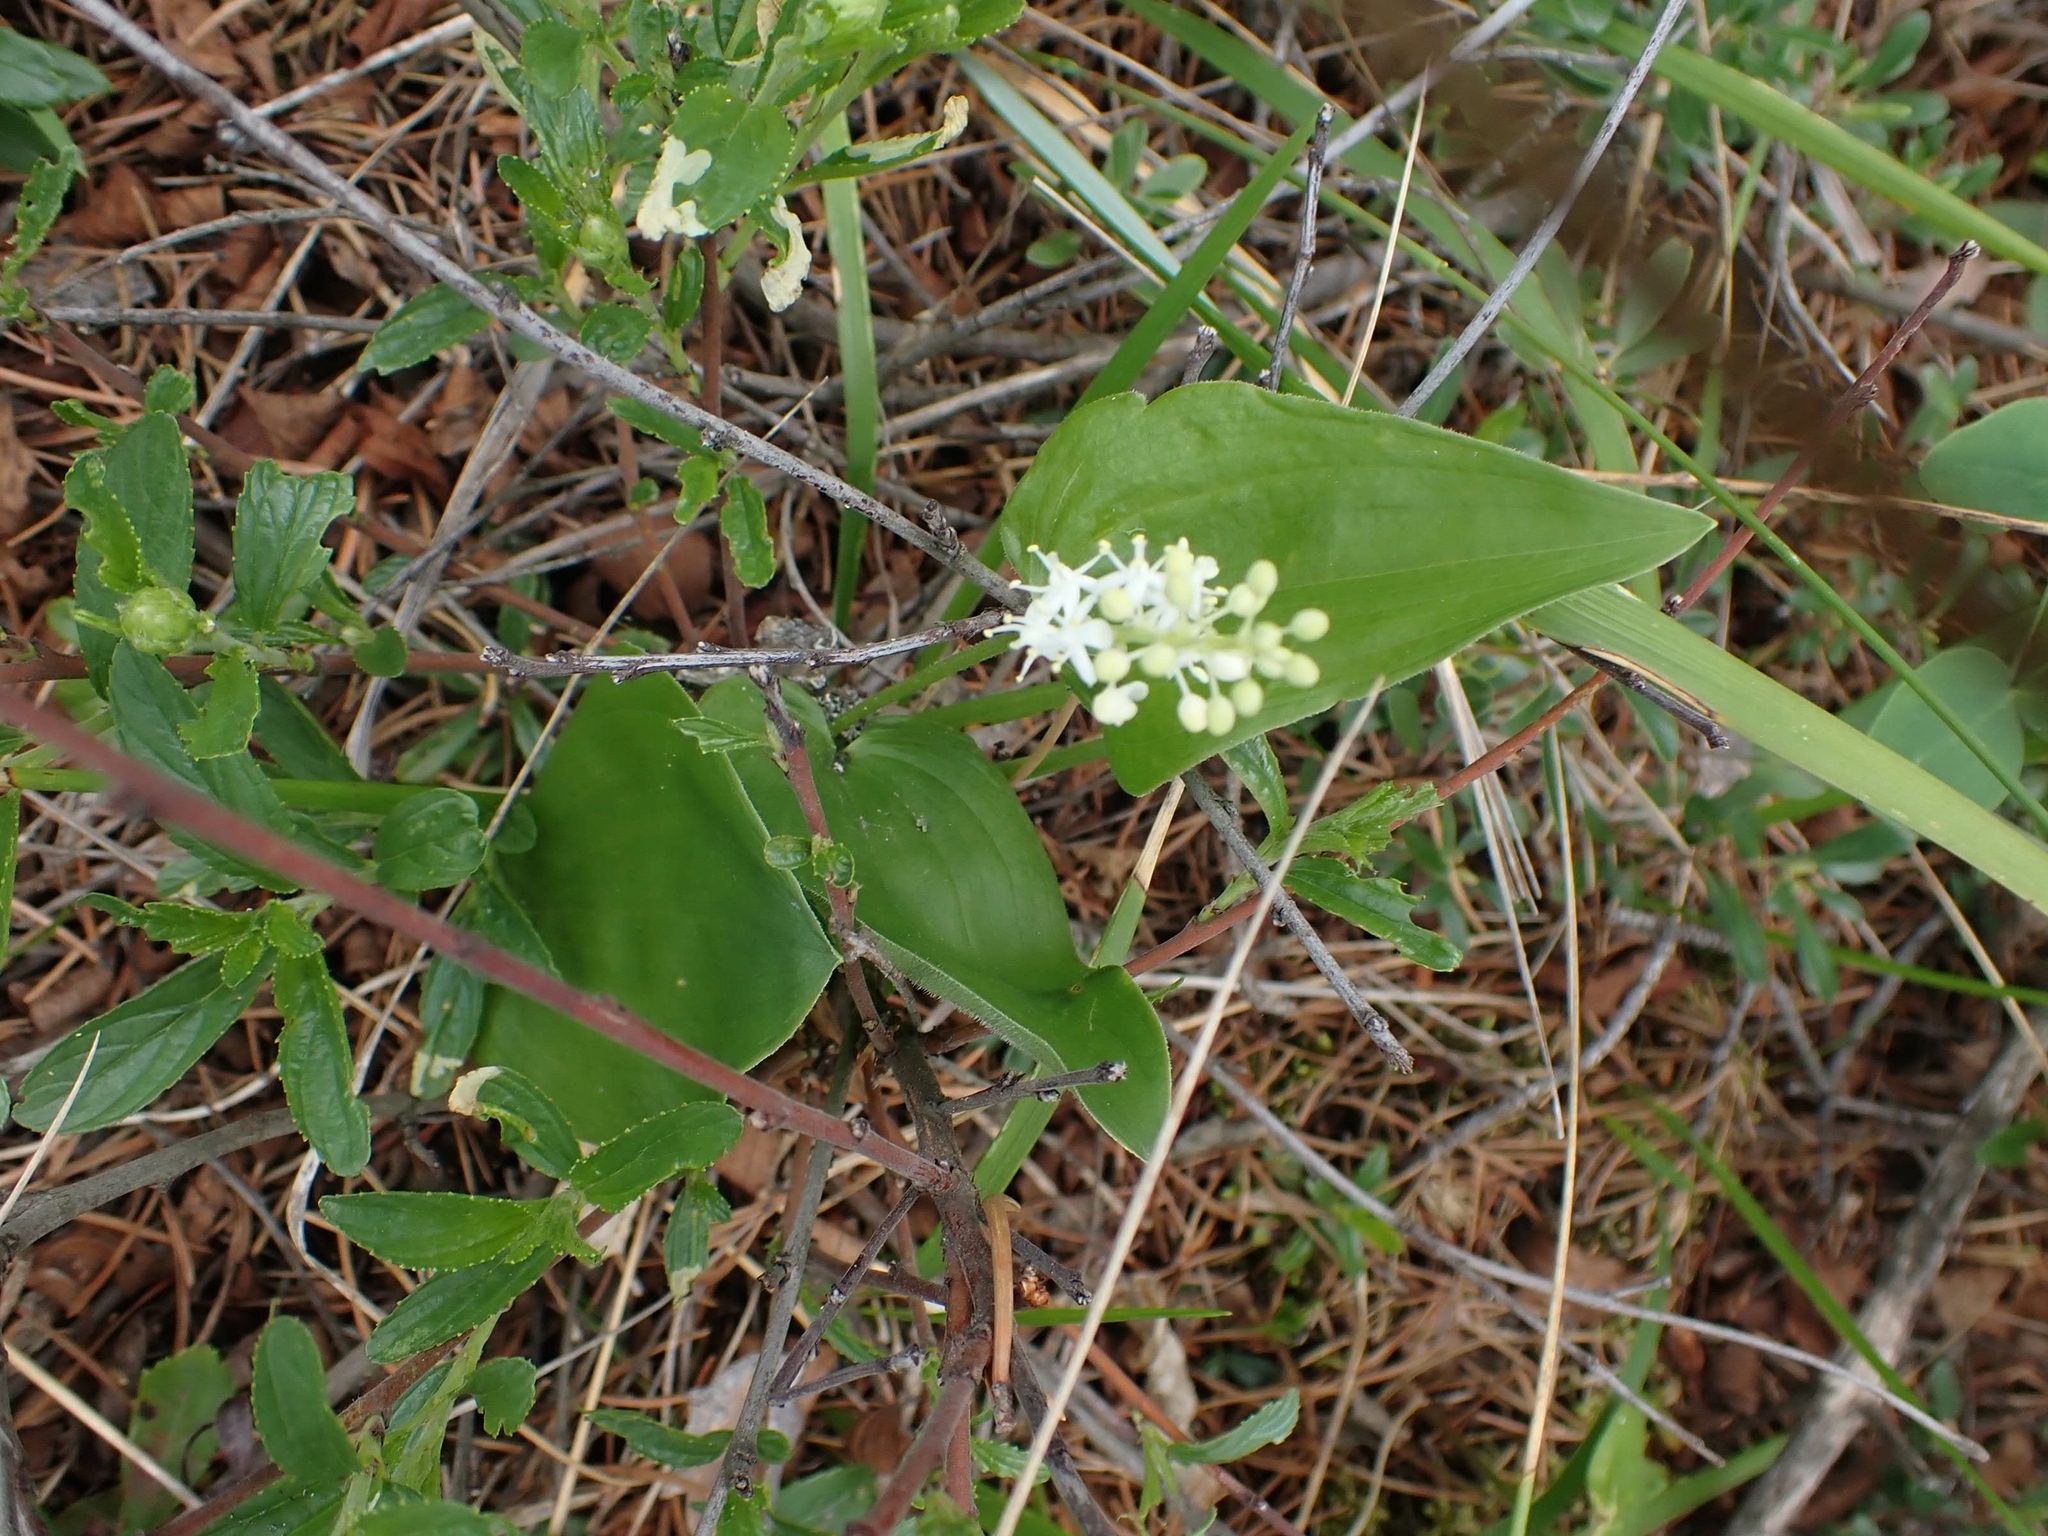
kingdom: Plantae
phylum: Tracheophyta
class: Liliopsida
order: Asparagales
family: Asparagaceae
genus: Maianthemum
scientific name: Maianthemum canadense
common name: False lily-of-the-valley
